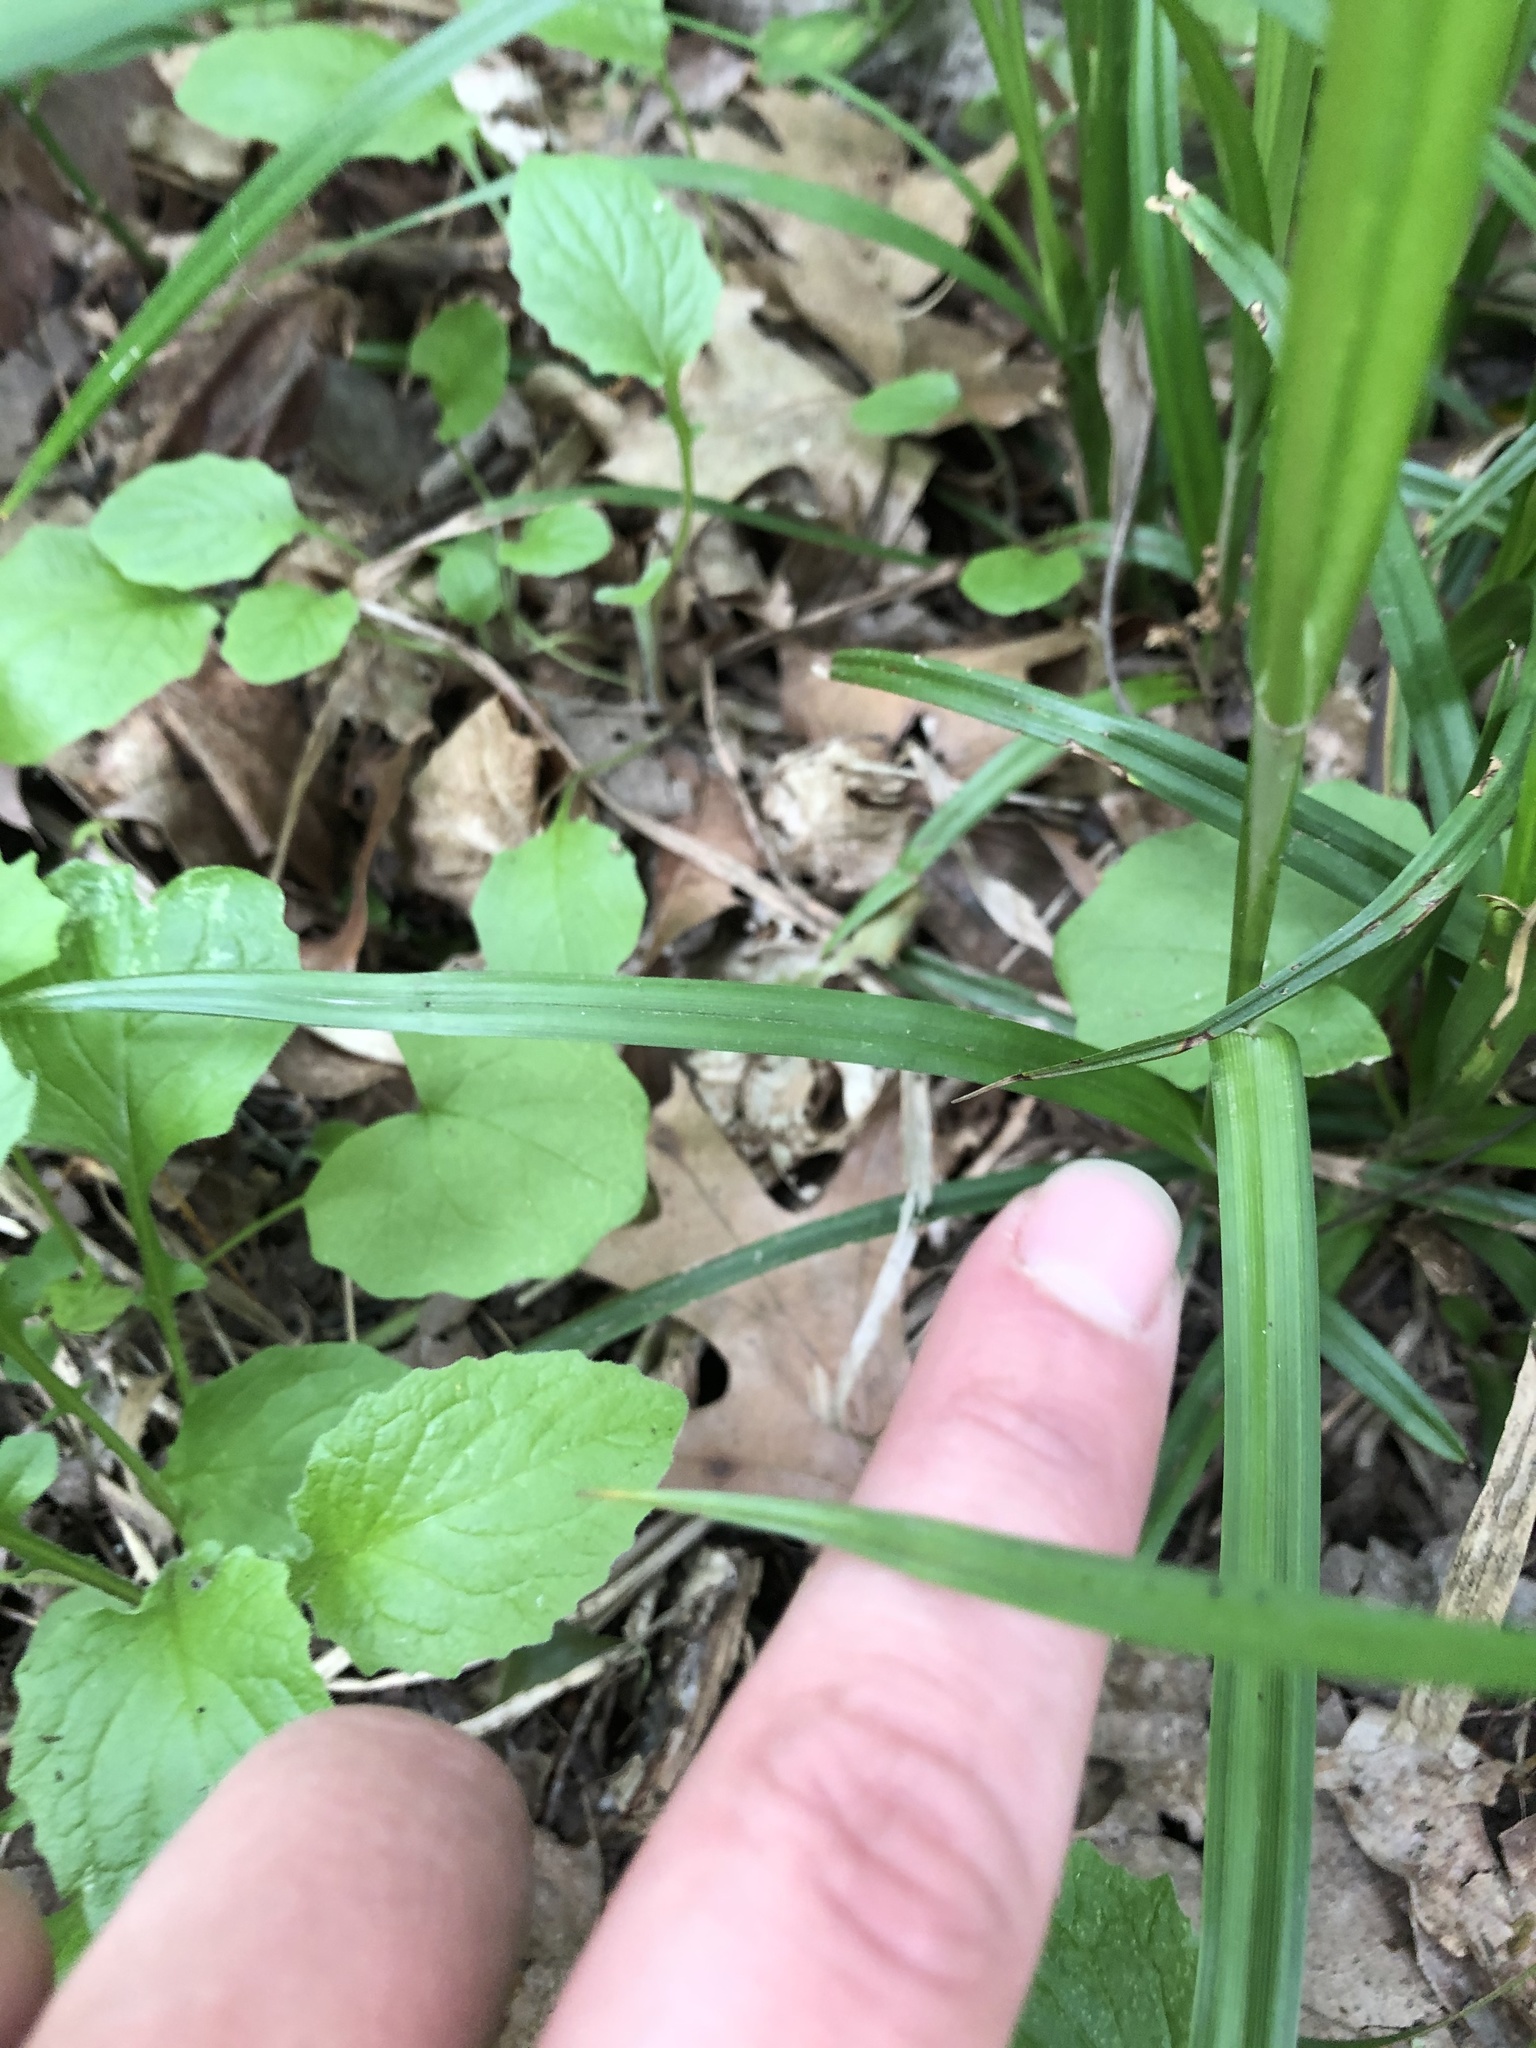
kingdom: Plantae
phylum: Tracheophyta
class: Liliopsida
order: Poales
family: Cyperaceae
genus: Carex
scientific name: Carex grayi
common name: Asa gray's sedge
